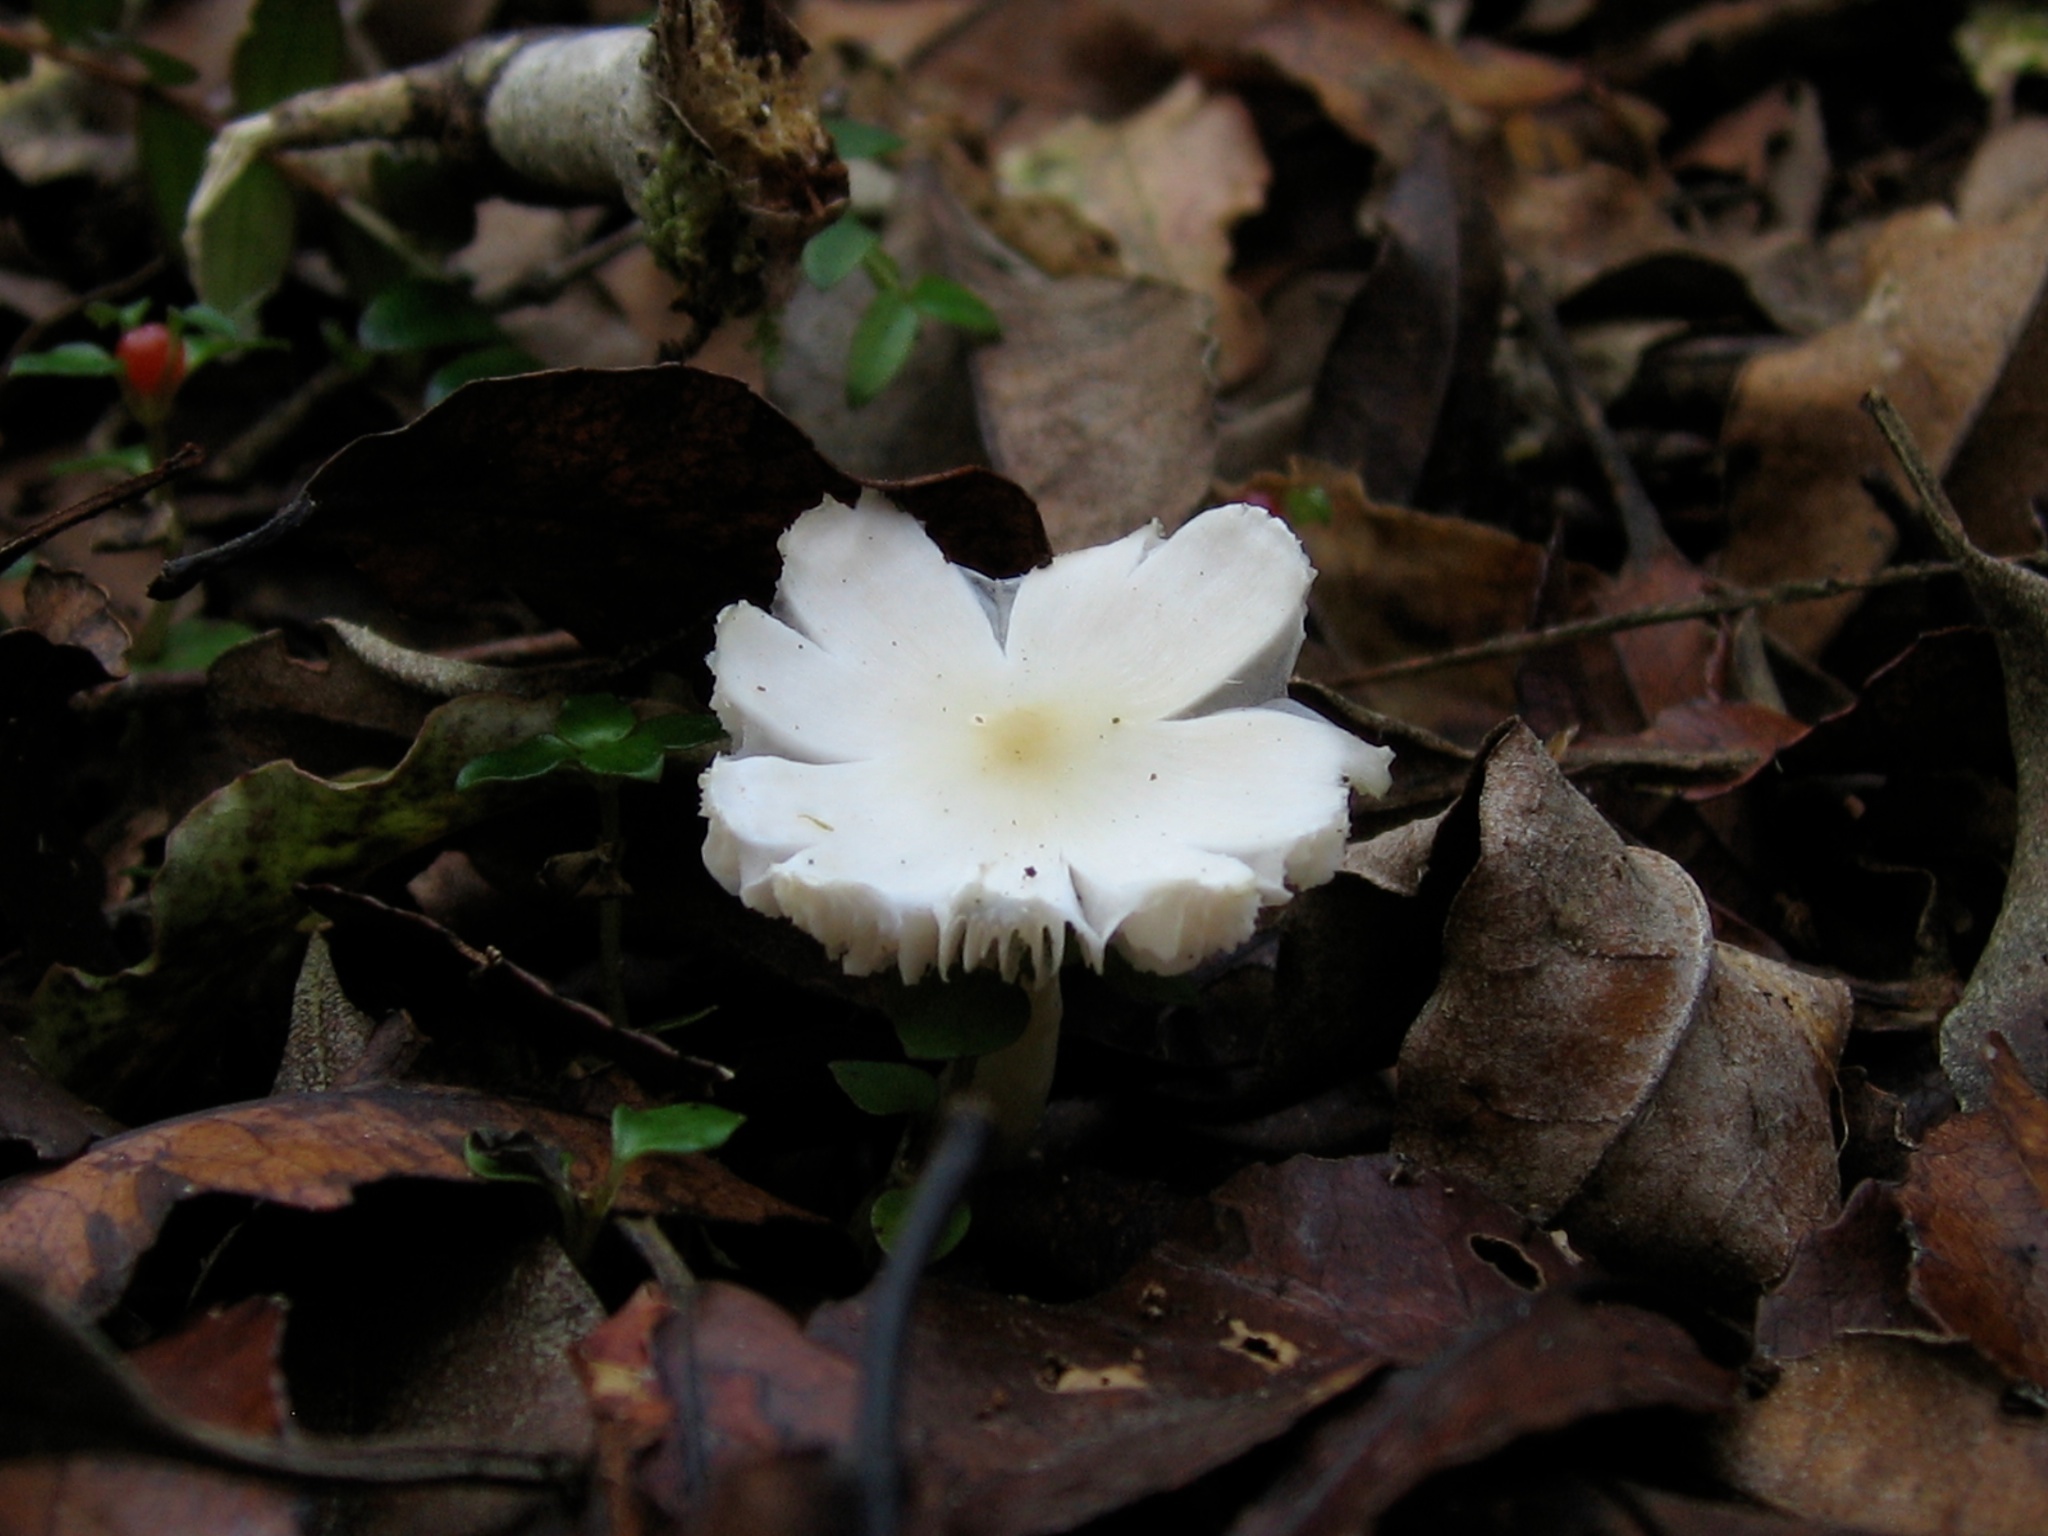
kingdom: Fungi
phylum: Basidiomycota
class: Agaricomycetes
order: Agaricales
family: Hygrophoraceae
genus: Humidicutis
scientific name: Humidicutis mavis
